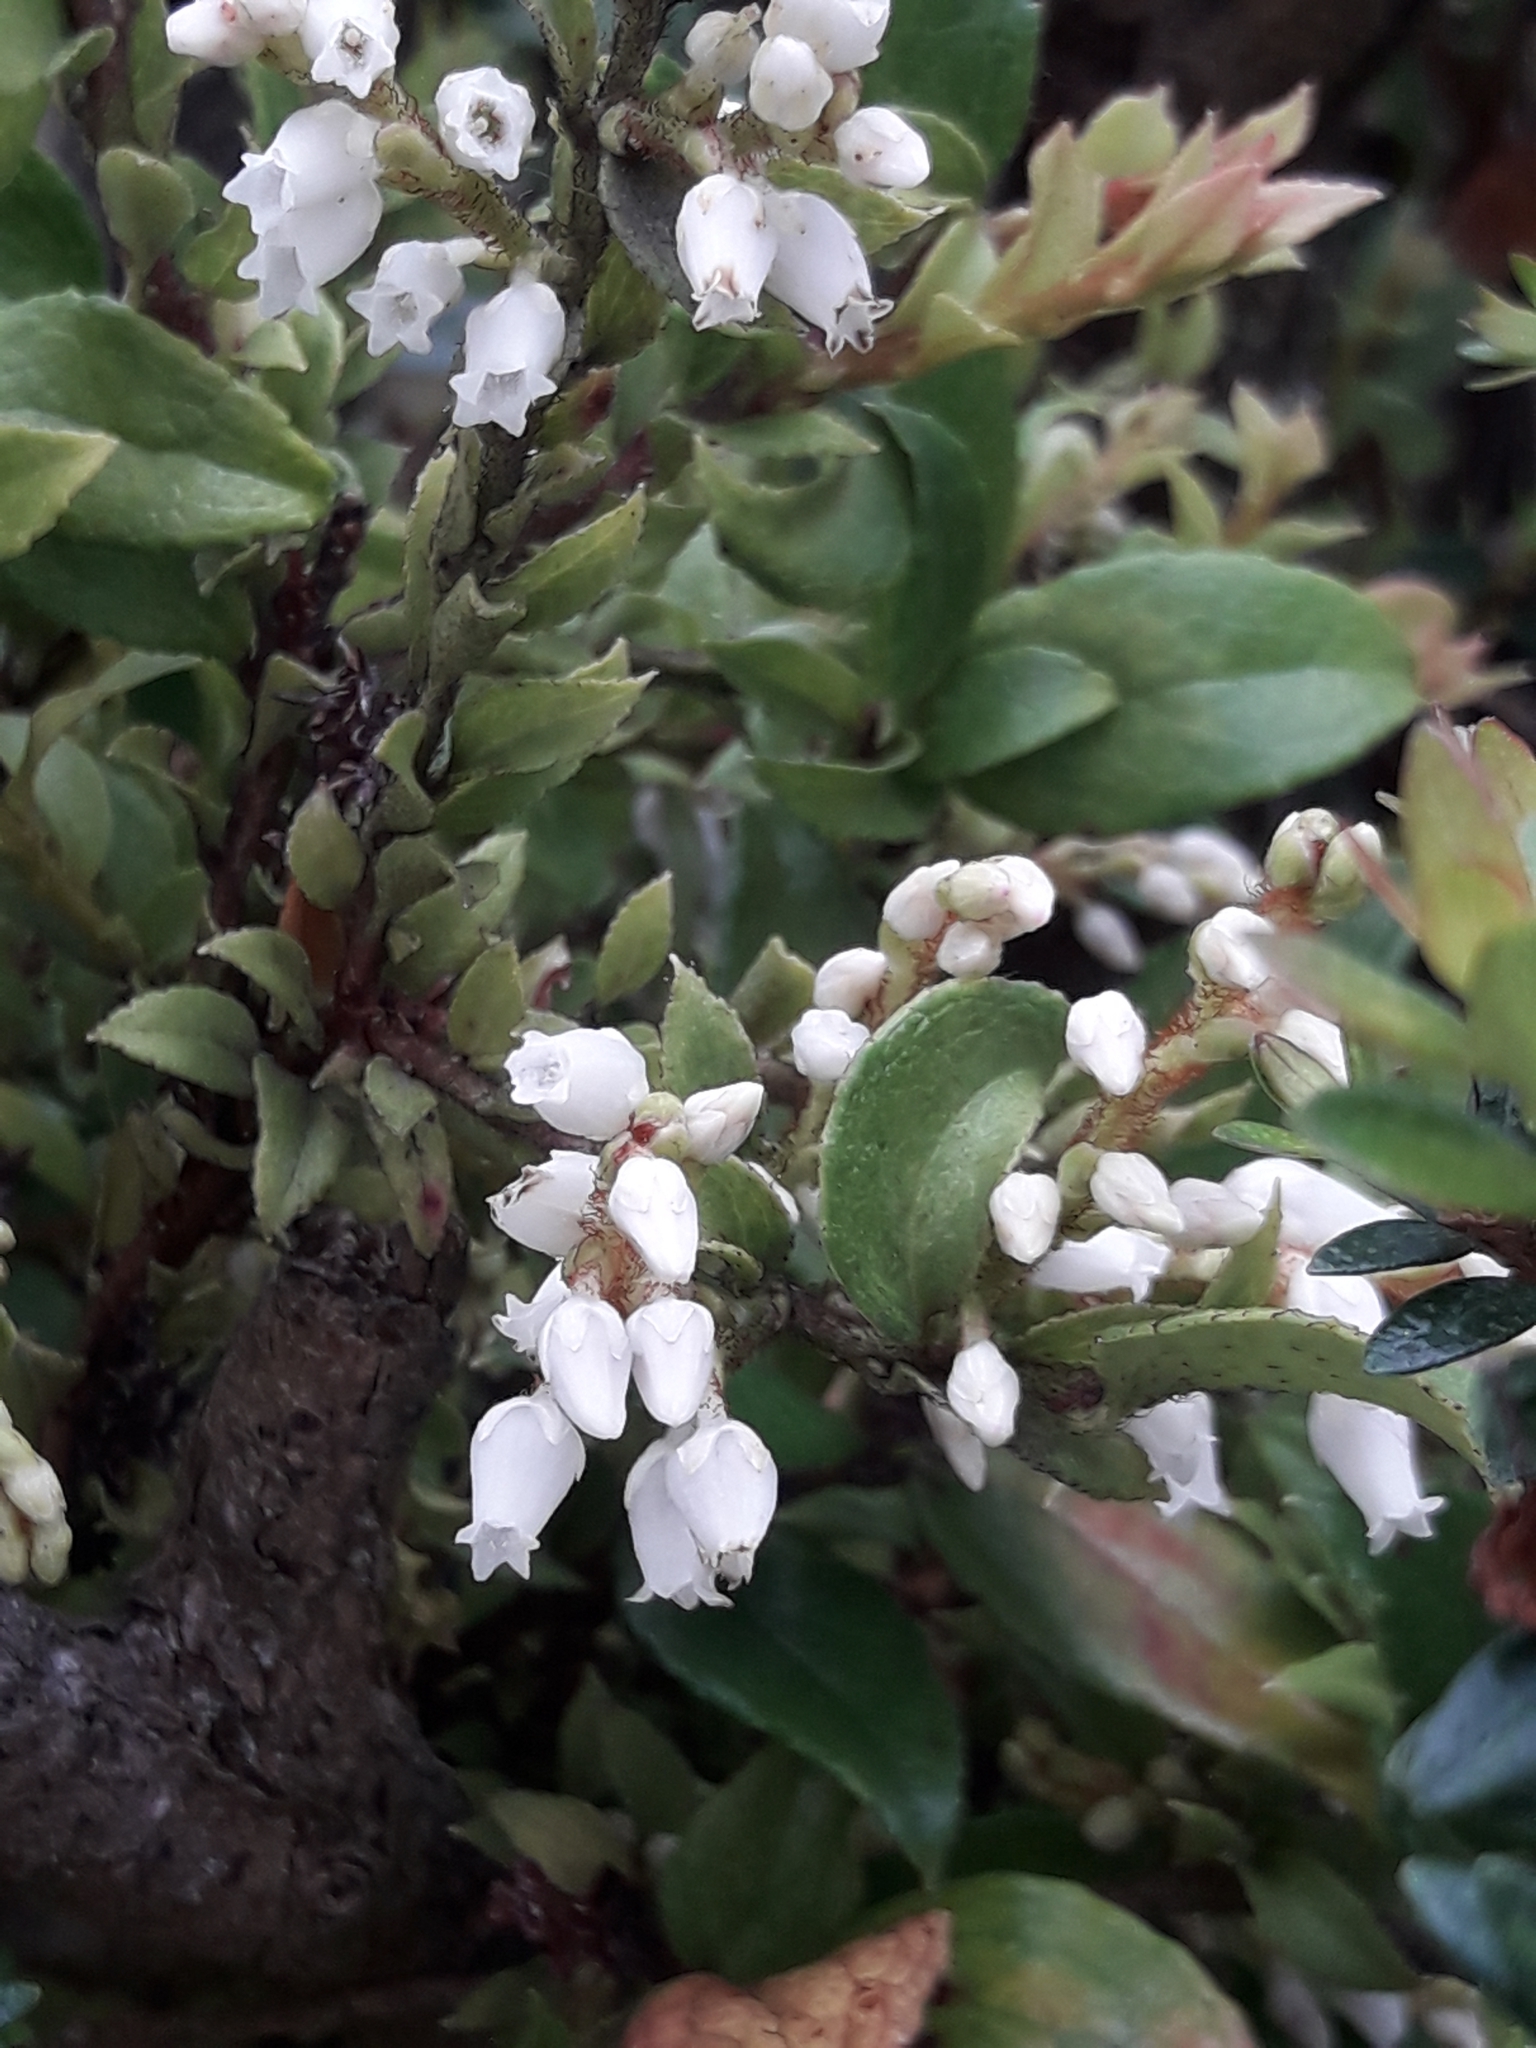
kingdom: Plantae
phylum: Tracheophyta
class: Magnoliopsida
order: Ericales
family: Ericaceae
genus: Gaultheria
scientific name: Gaultheria insana
